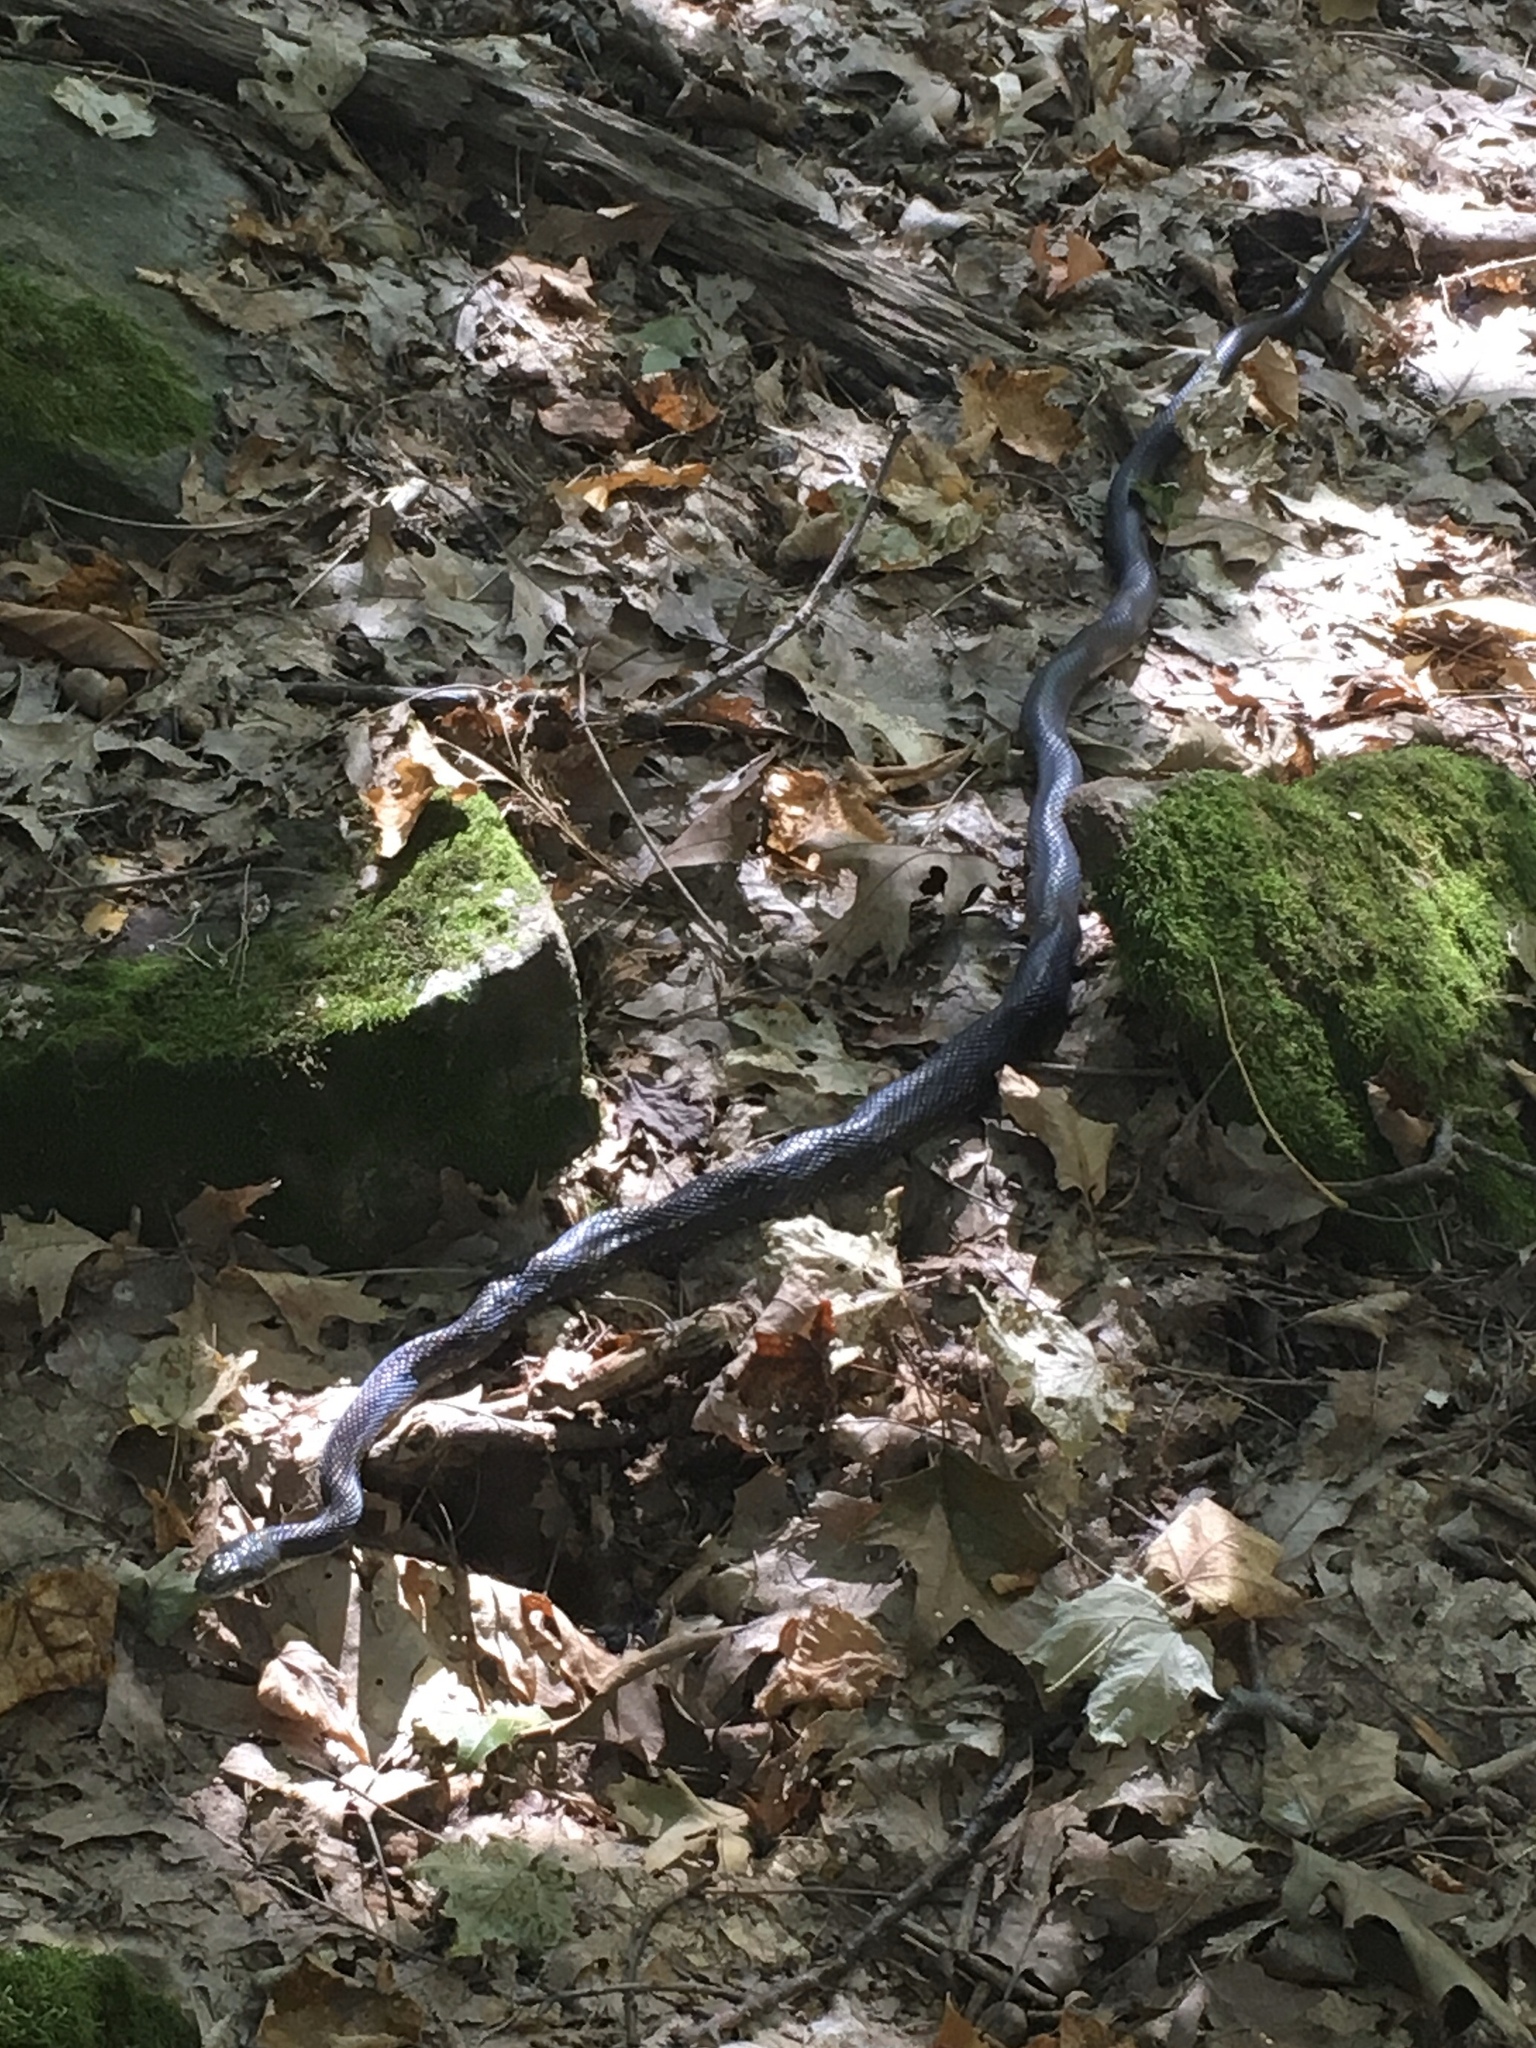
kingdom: Animalia
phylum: Chordata
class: Squamata
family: Colubridae
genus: Pantherophis
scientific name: Pantherophis spiloides
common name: Gray rat snake
